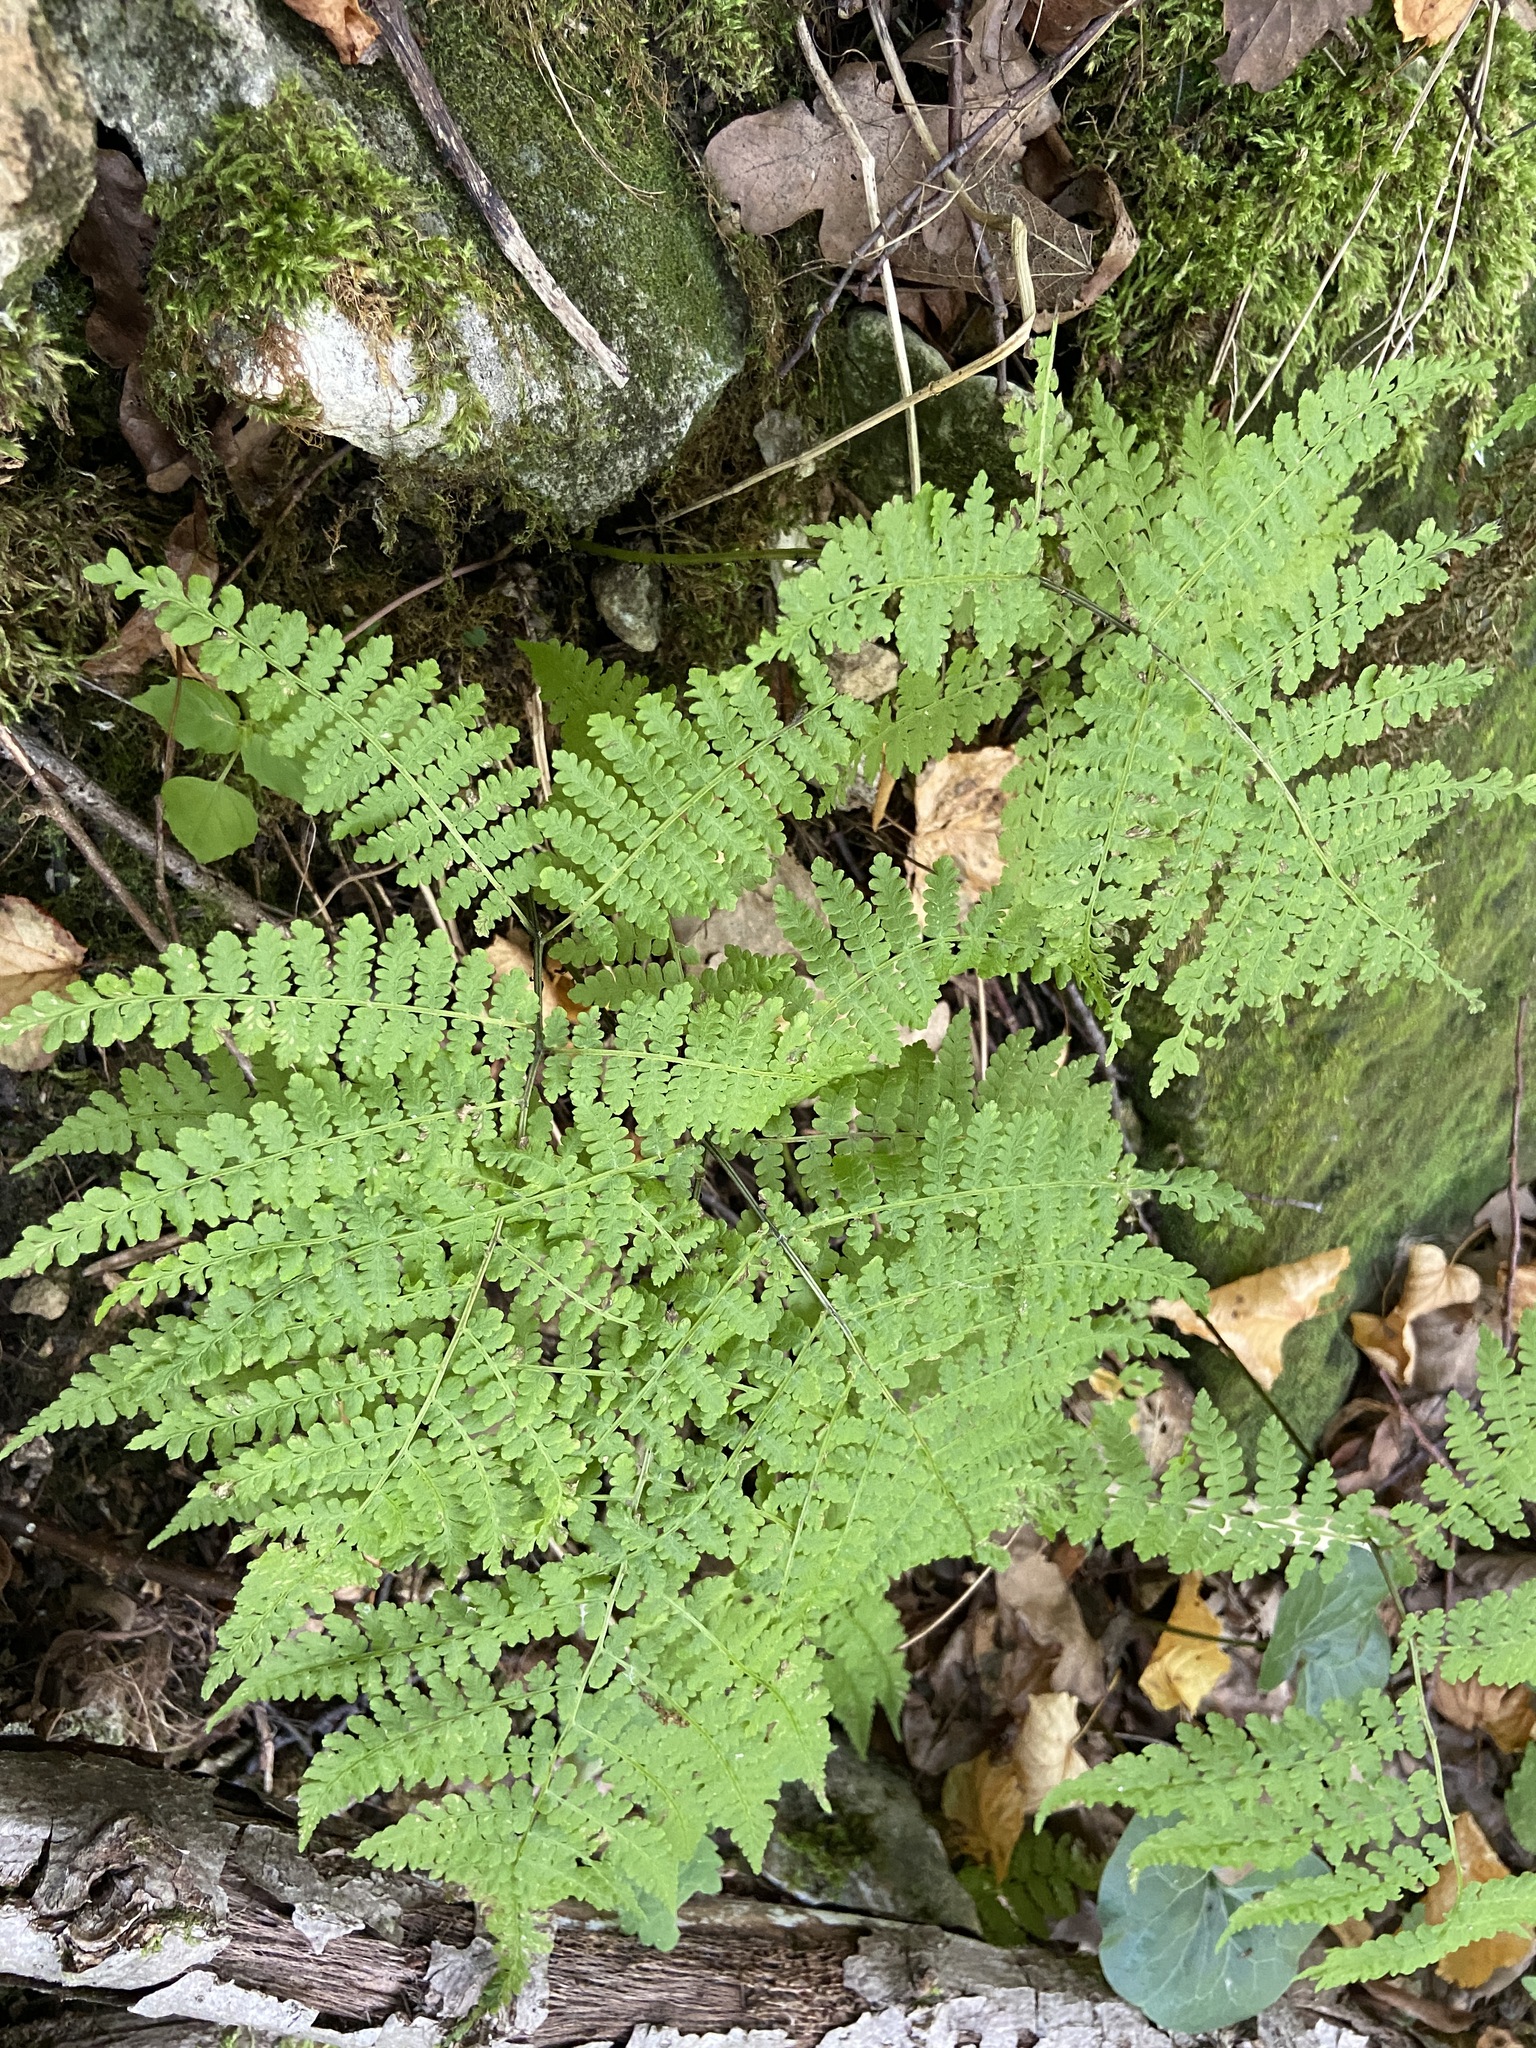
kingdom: Plantae
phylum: Tracheophyta
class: Polypodiopsida
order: Polypodiales
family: Athyriaceae
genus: Diplazium
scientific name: Diplazium sibiricum
